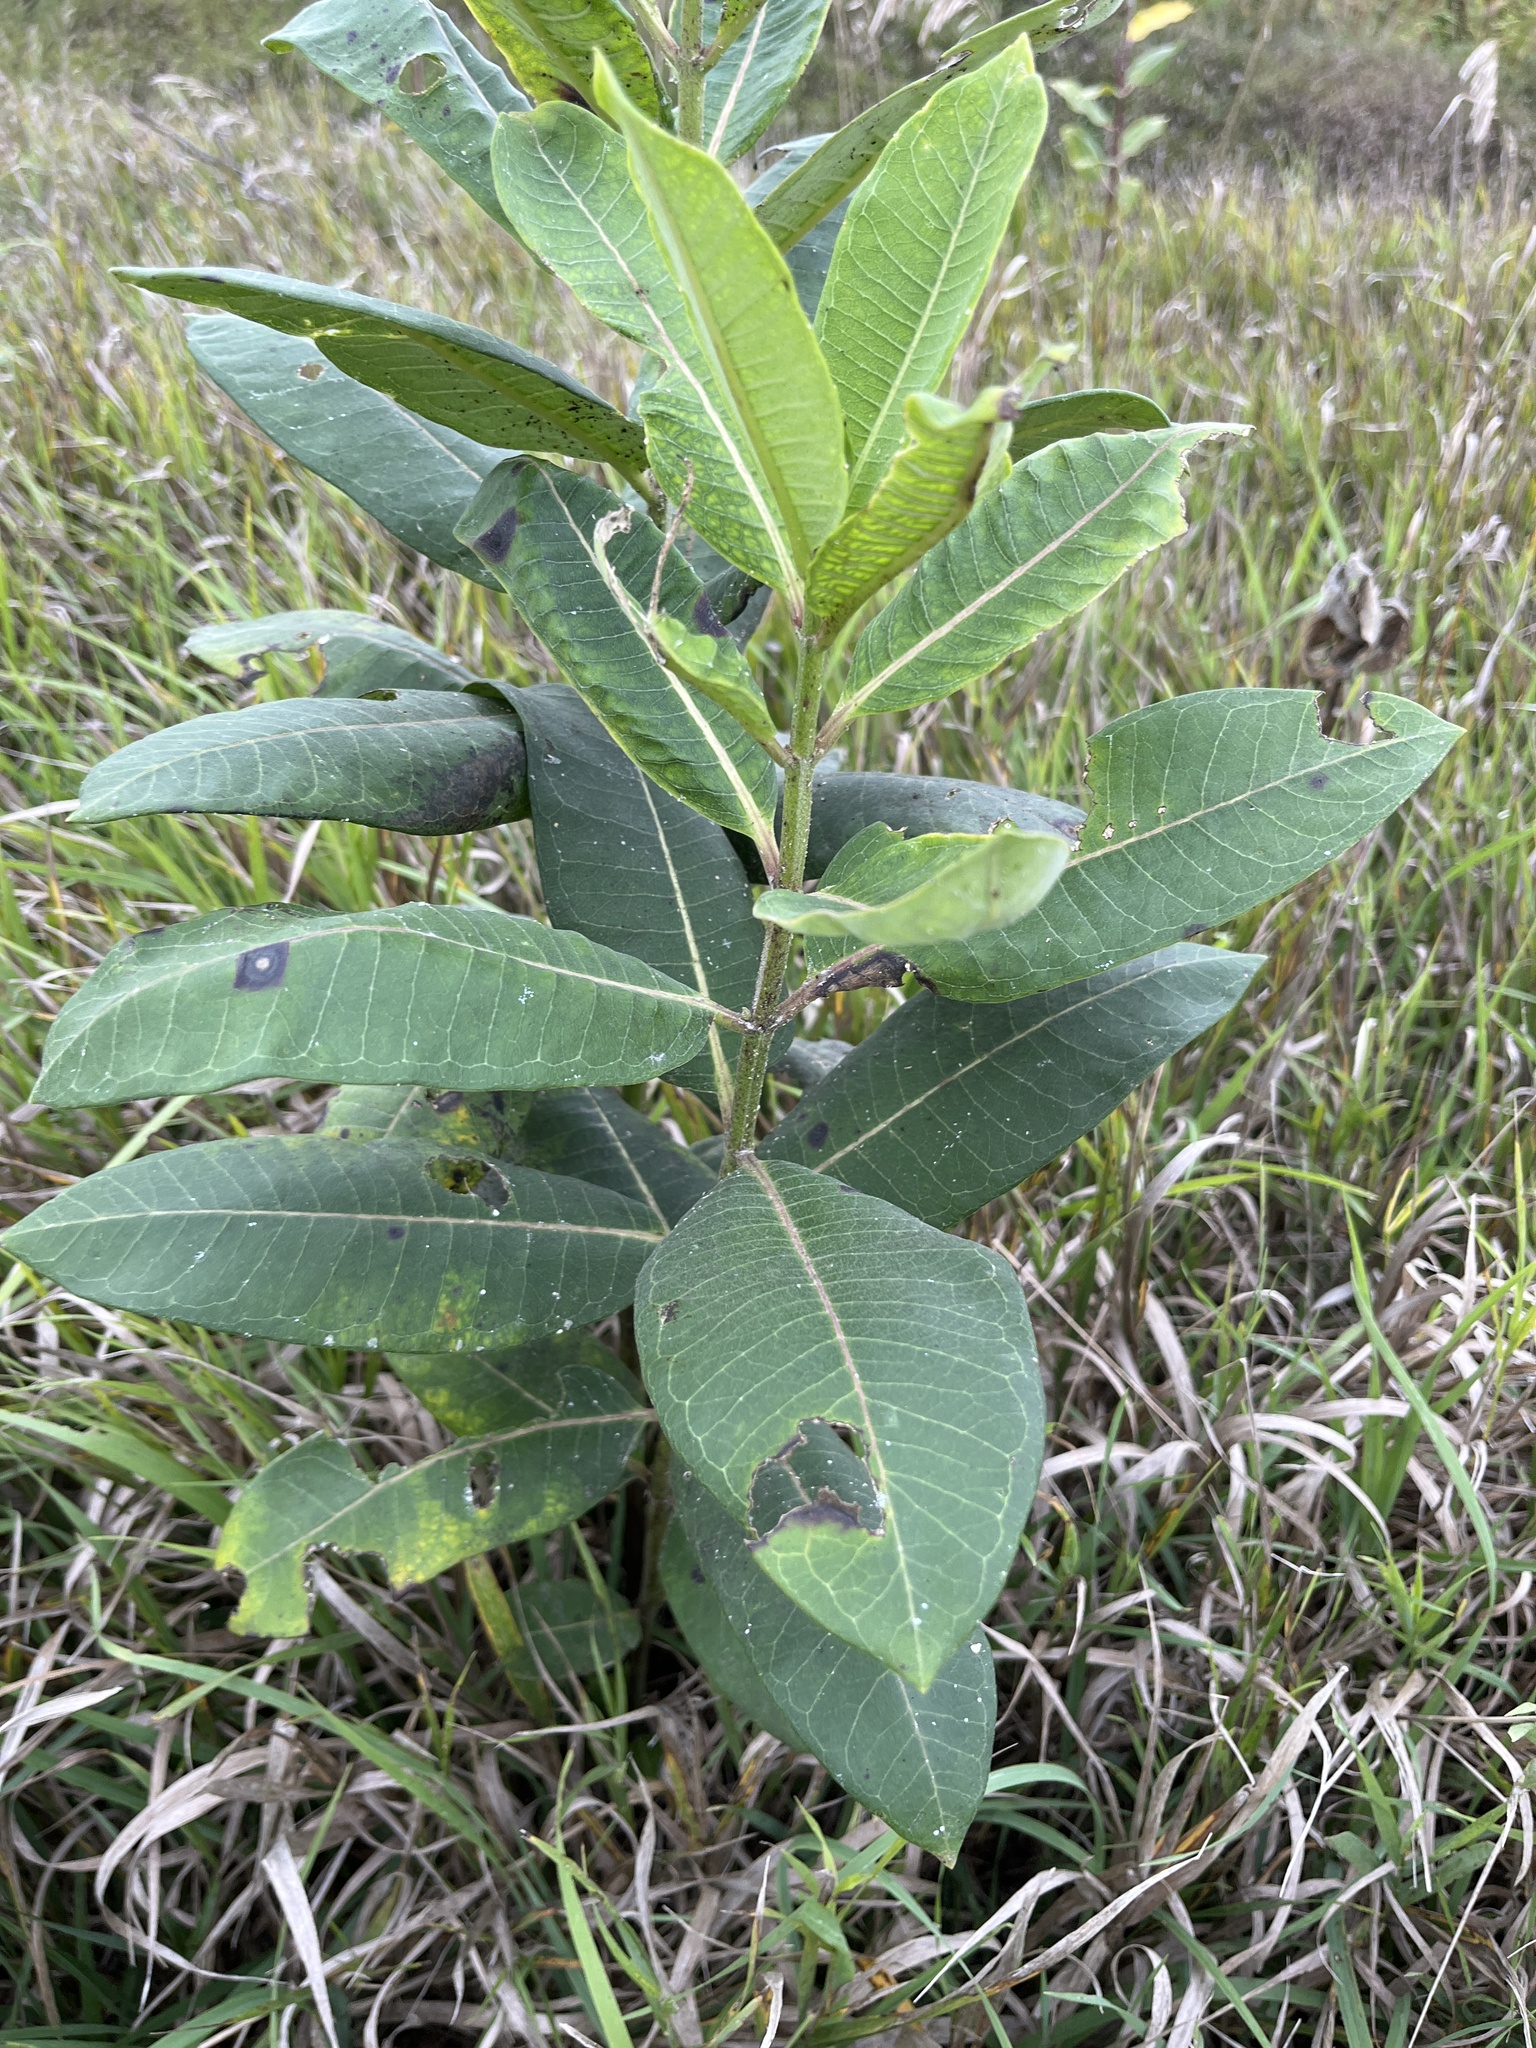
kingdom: Plantae
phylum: Tracheophyta
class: Magnoliopsida
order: Gentianales
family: Apocynaceae
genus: Asclepias
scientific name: Asclepias syriaca
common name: Common milkweed
